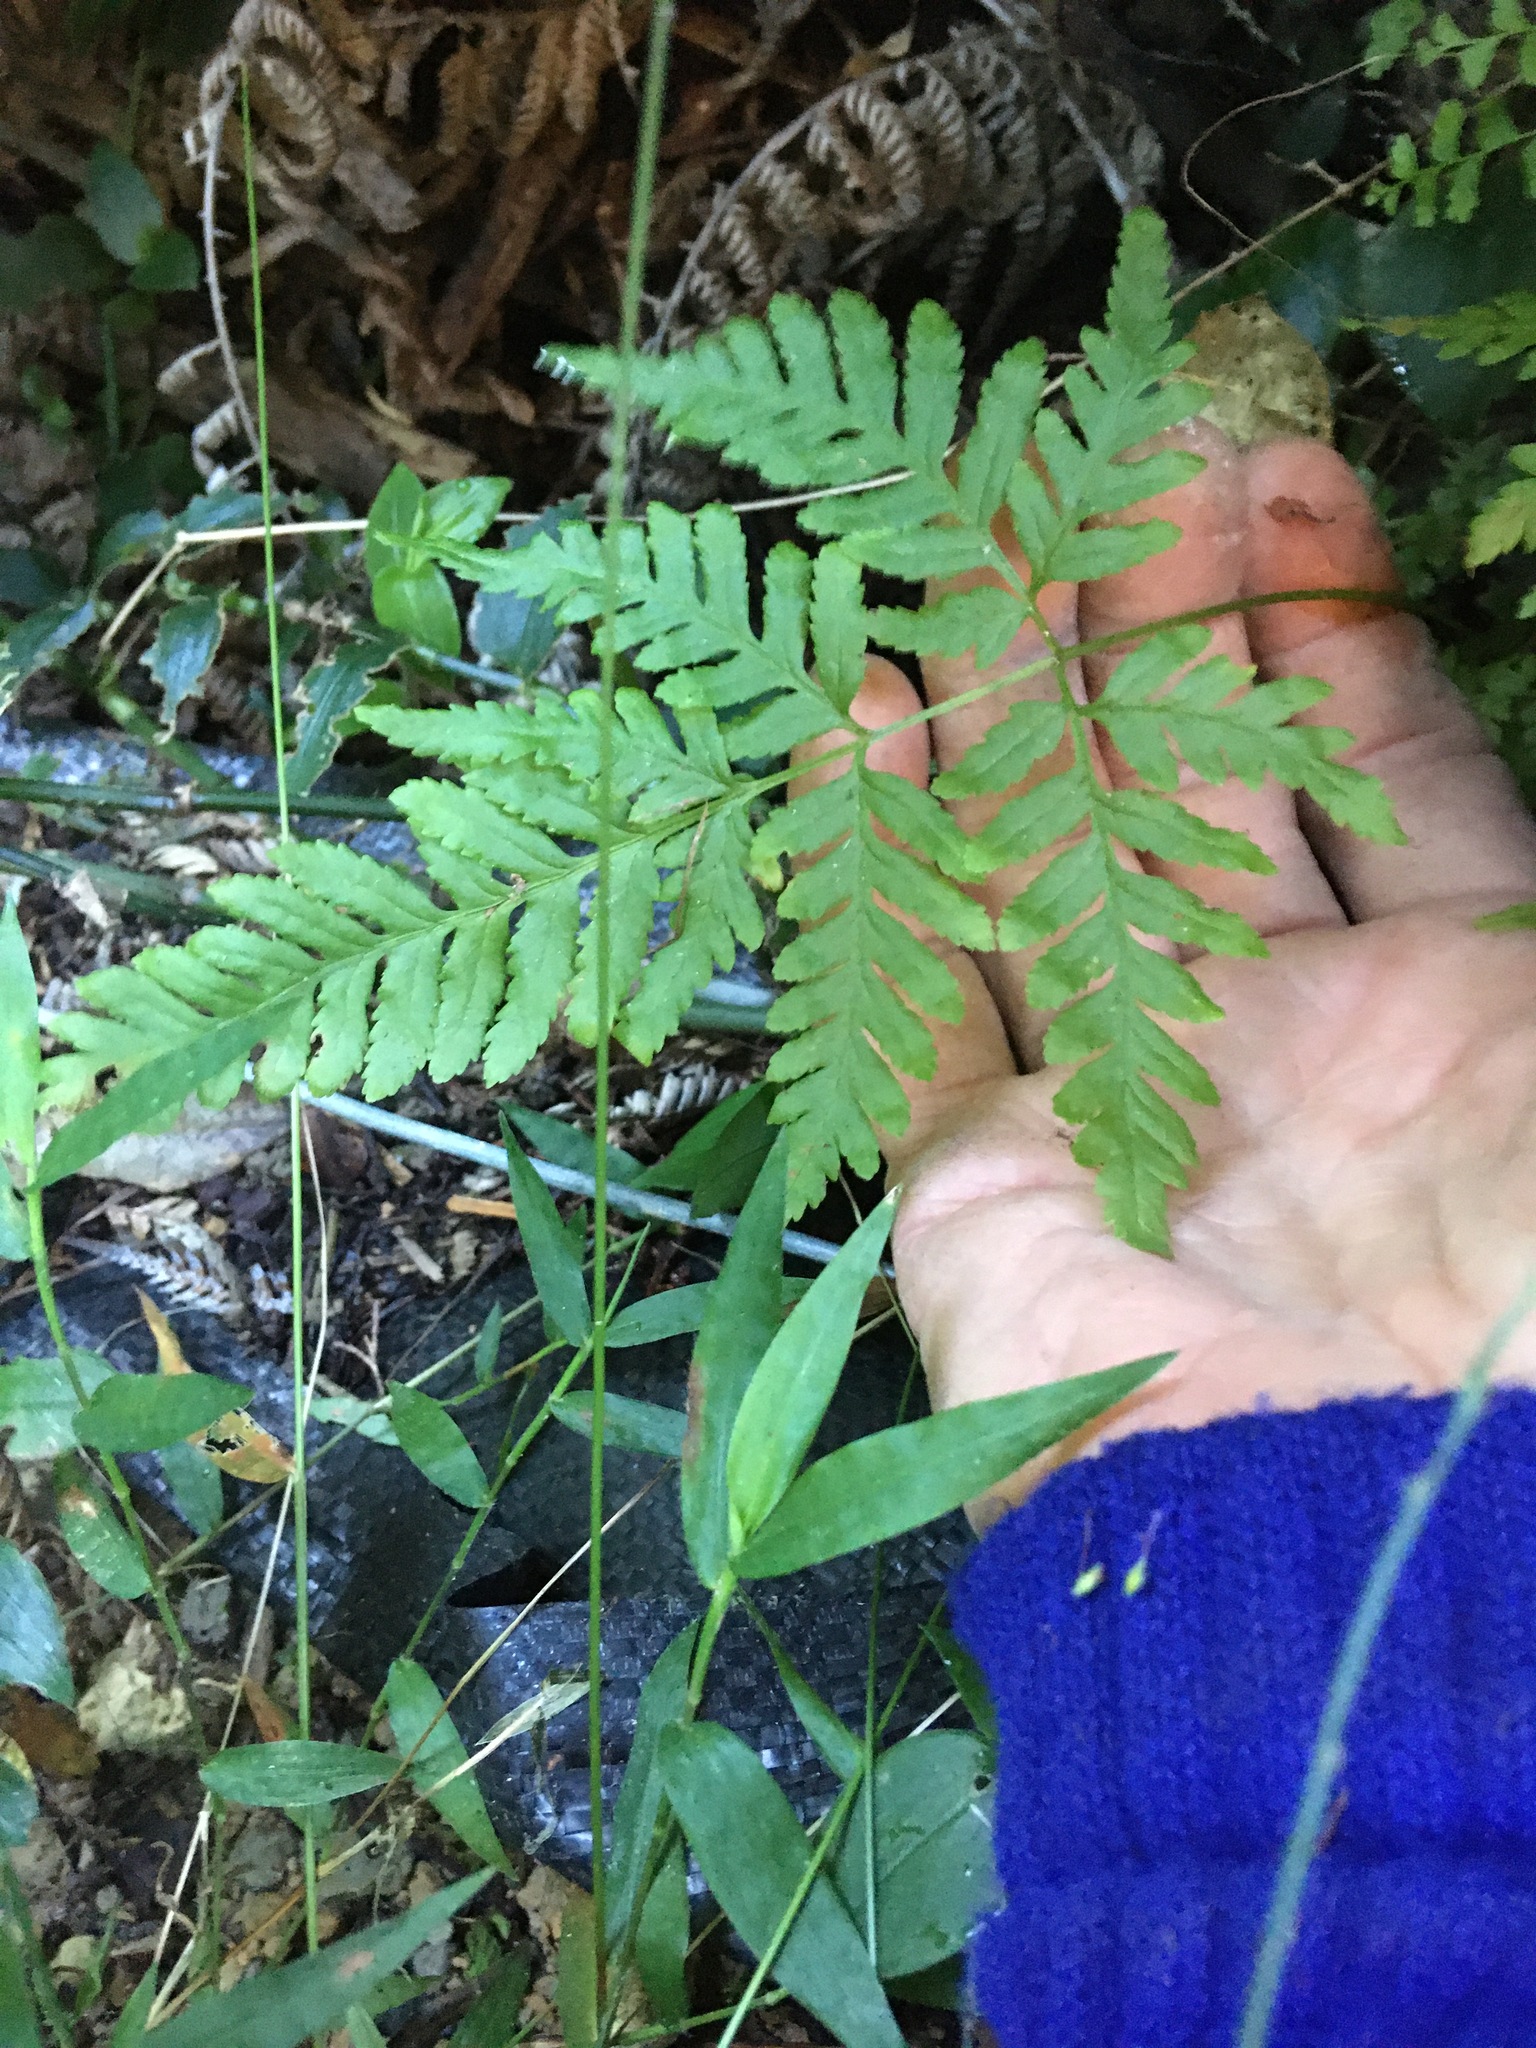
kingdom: Plantae
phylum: Tracheophyta
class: Polypodiopsida
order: Polypodiales
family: Pteridaceae
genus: Pteris
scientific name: Pteris tremula
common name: Australian brake
